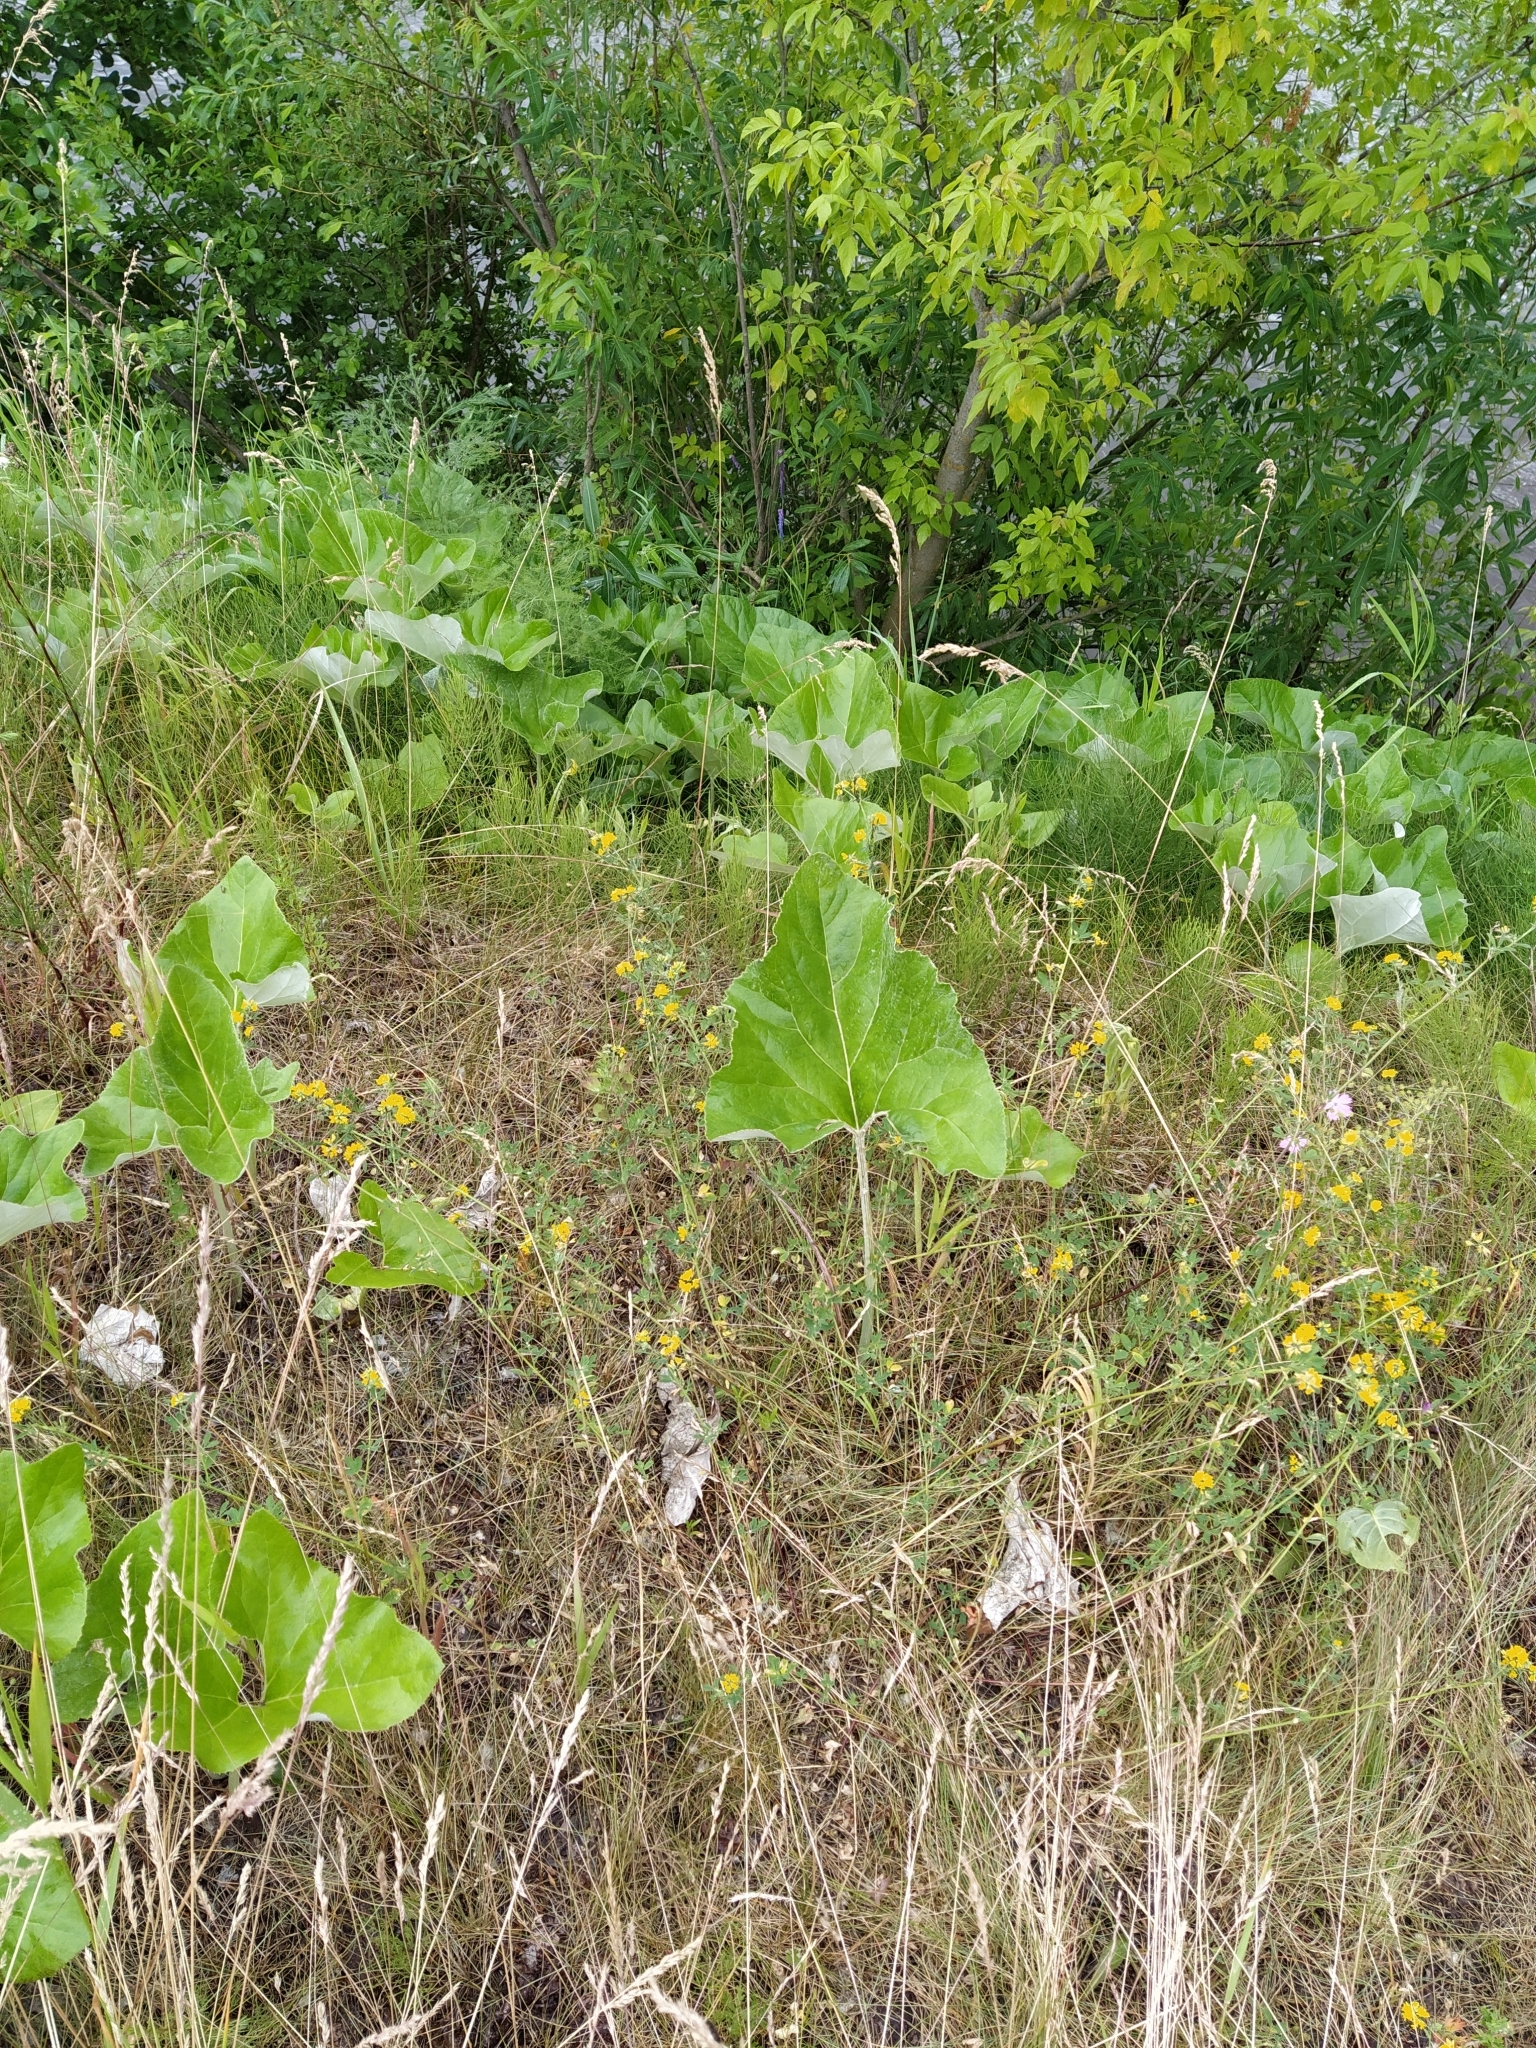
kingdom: Plantae
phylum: Tracheophyta
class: Magnoliopsida
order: Asterales
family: Asteraceae
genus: Petasites
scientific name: Petasites spurius
